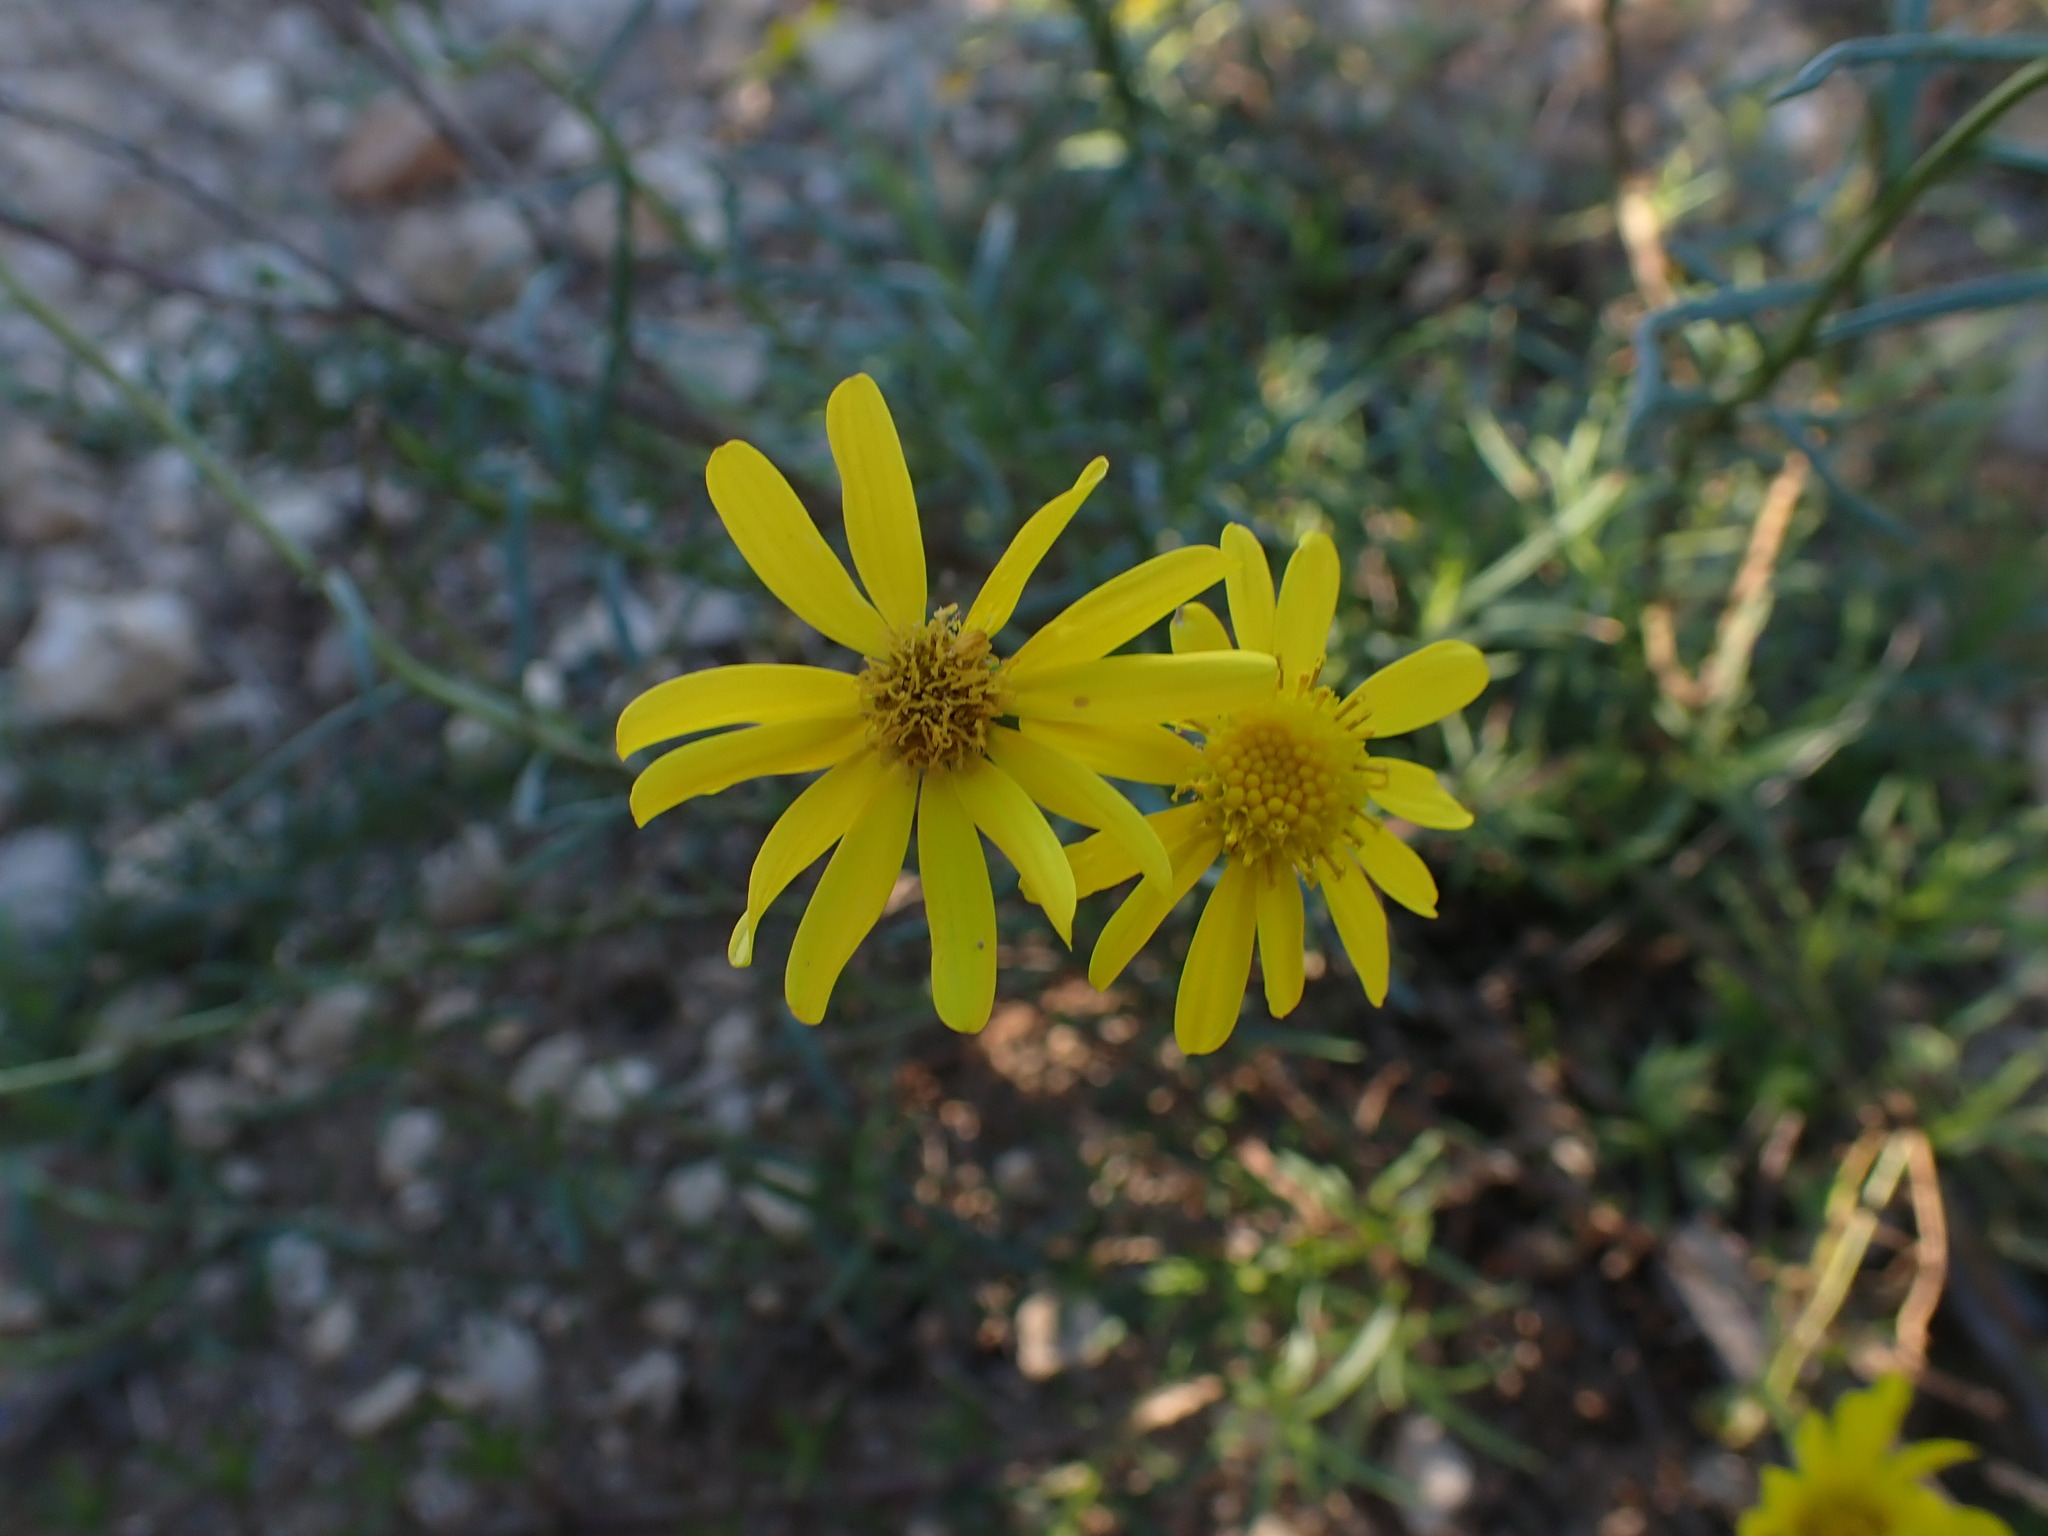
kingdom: Plantae
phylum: Tracheophyta
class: Magnoliopsida
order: Asterales
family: Asteraceae
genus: Senecio
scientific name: Senecio inaequidens
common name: Narrow-leaved ragwort
